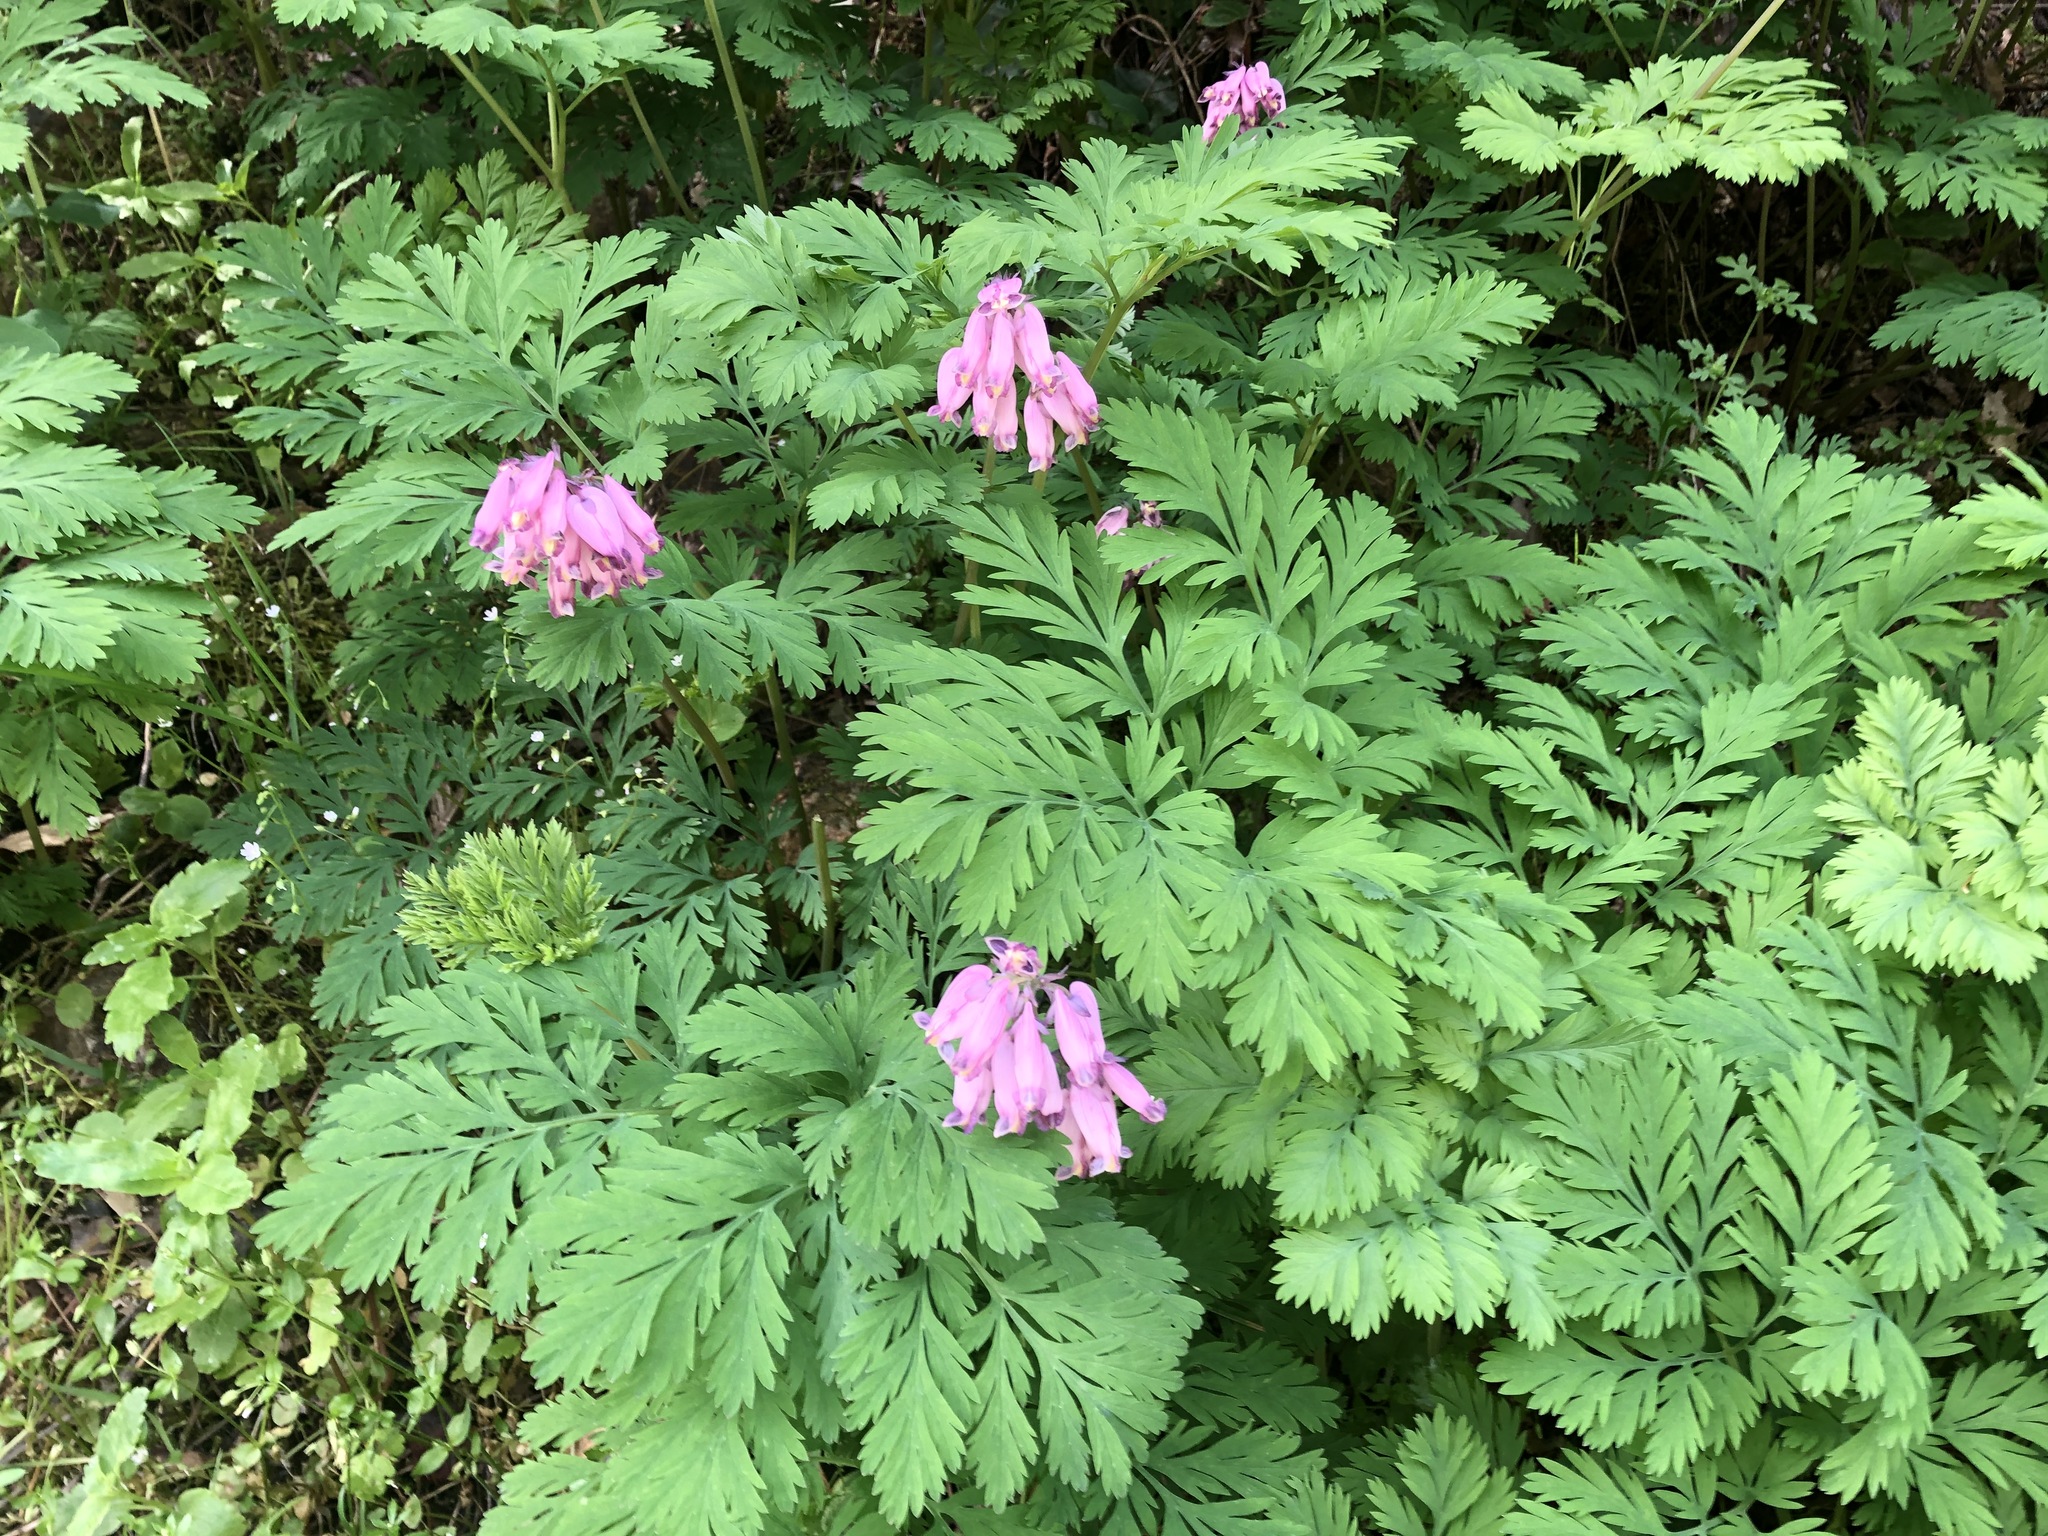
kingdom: Plantae
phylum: Tracheophyta
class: Magnoliopsida
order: Ranunculales
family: Papaveraceae
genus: Dicentra
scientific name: Dicentra formosa
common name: Bleeding-heart
